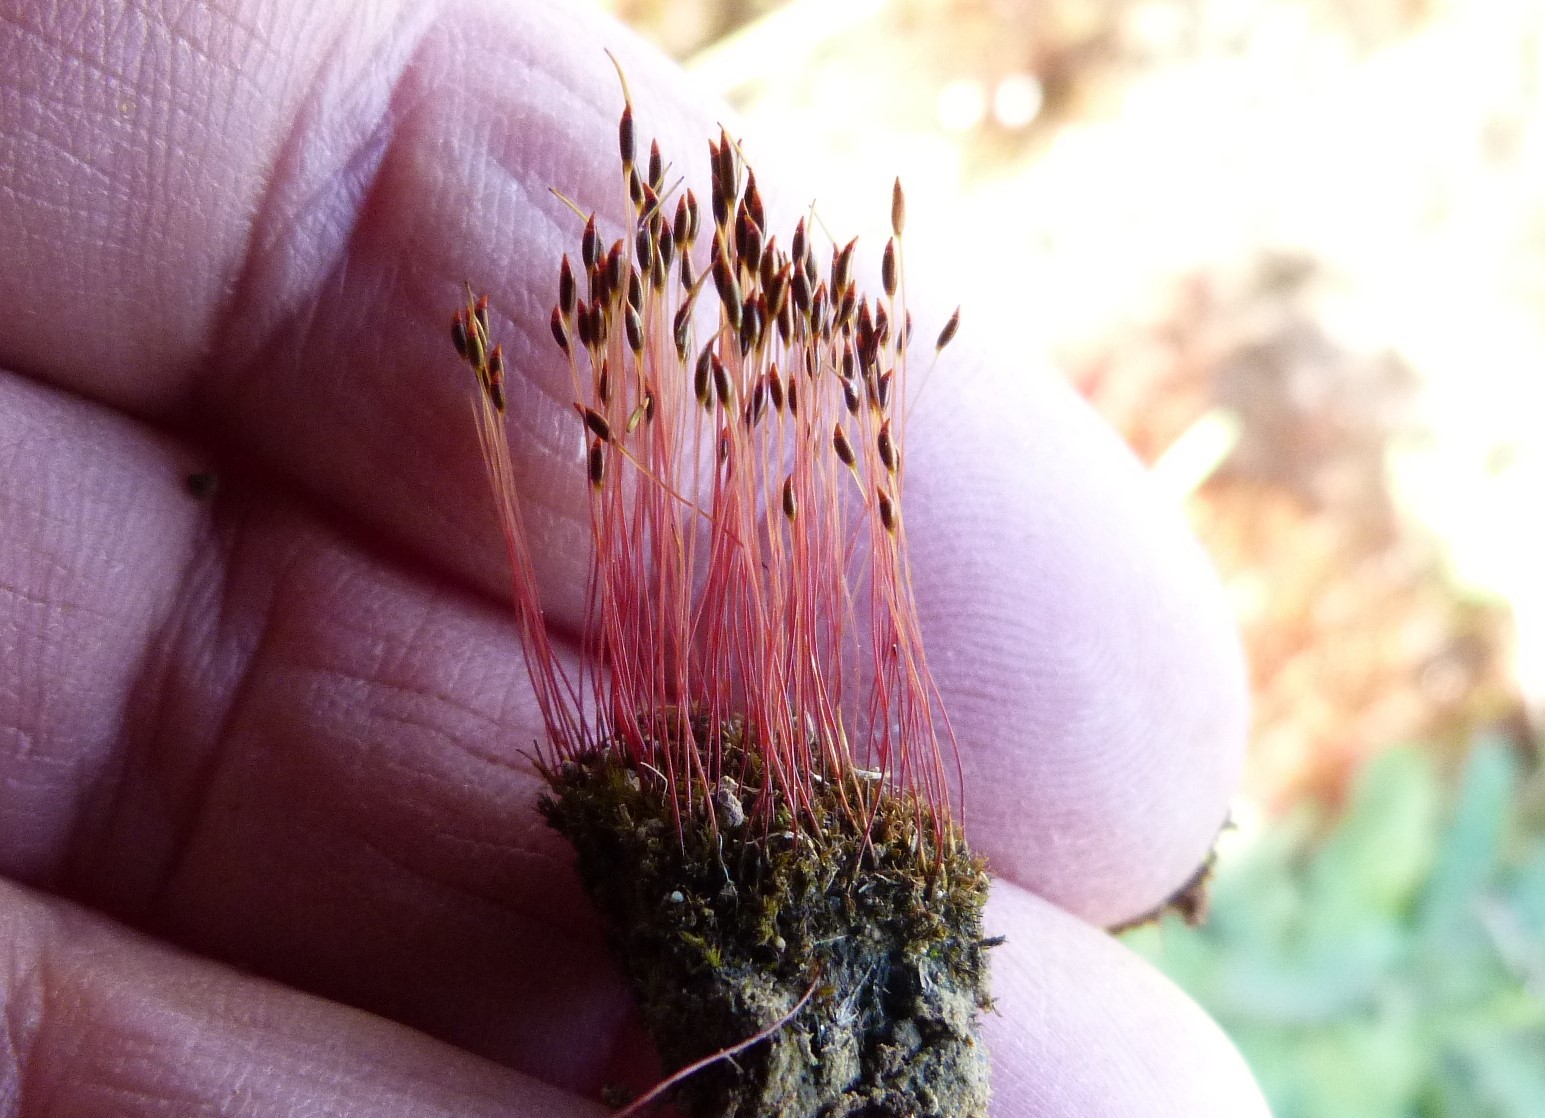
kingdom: Plantae
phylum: Bryophyta
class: Bryopsida
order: Dicranales
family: Ditrichaceae
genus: Ceratodon
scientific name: Ceratodon purpureus
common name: Redshank
